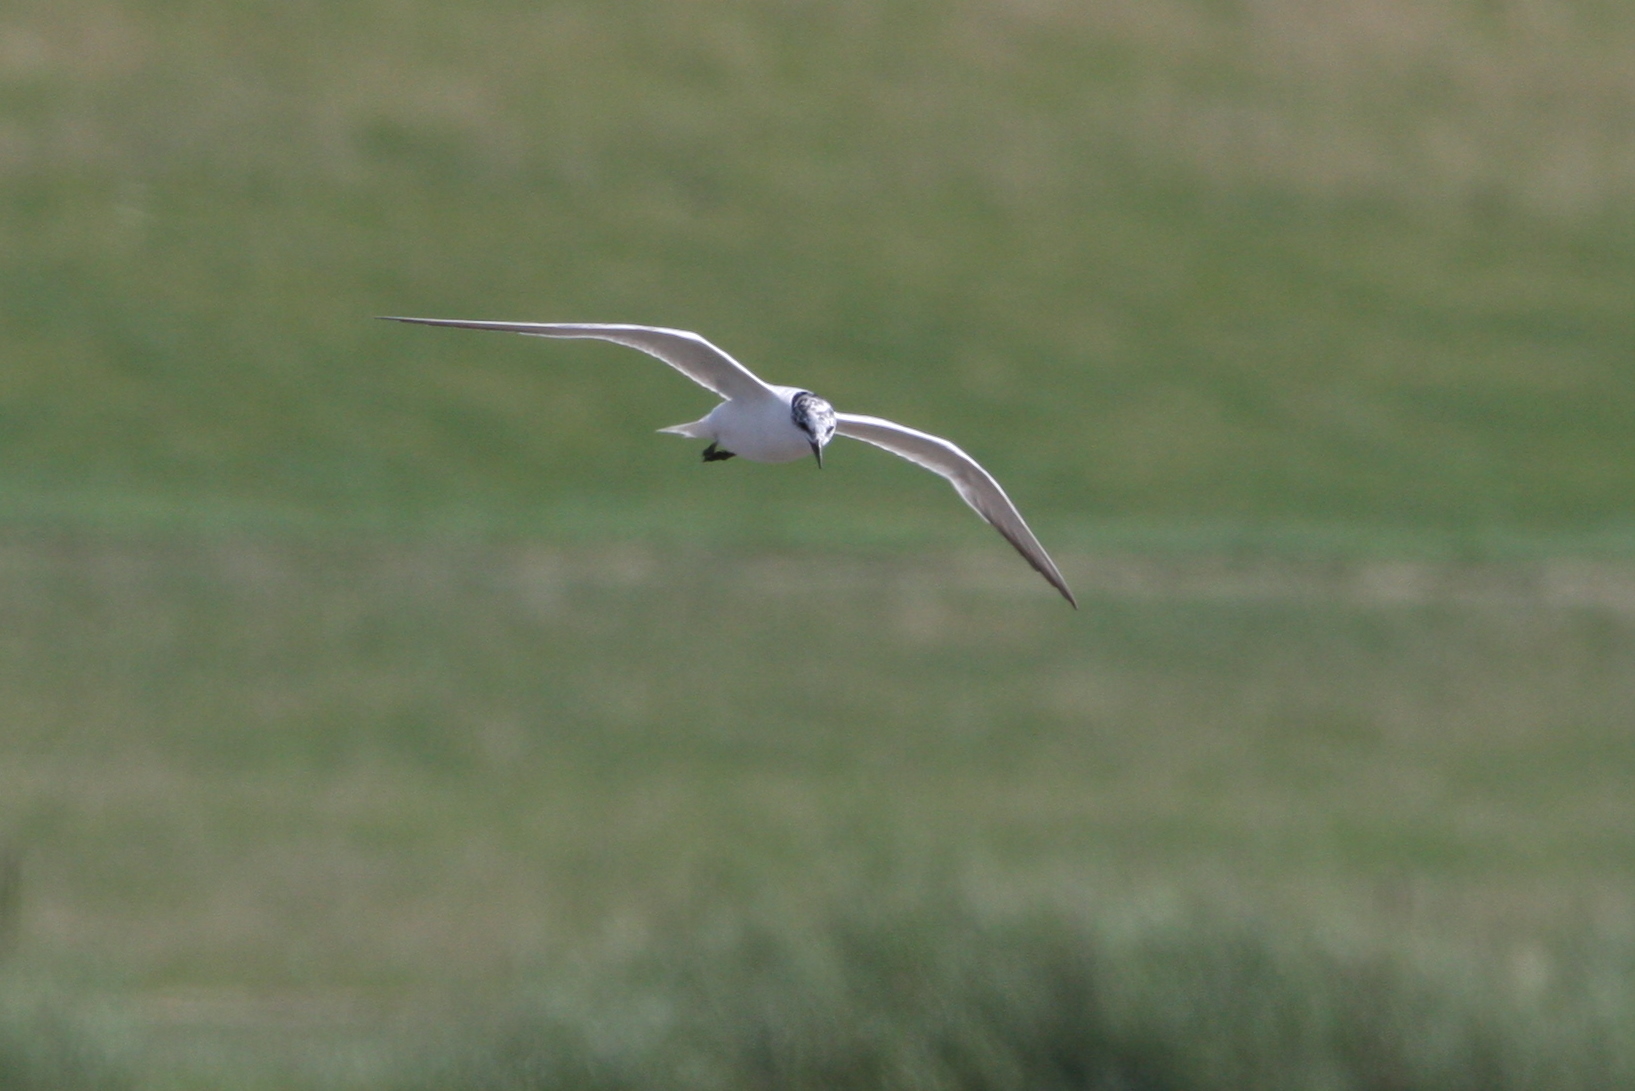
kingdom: Animalia
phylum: Chordata
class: Aves
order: Charadriiformes
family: Laridae
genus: Gelochelidon
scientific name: Gelochelidon nilotica
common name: Gull-billed tern
